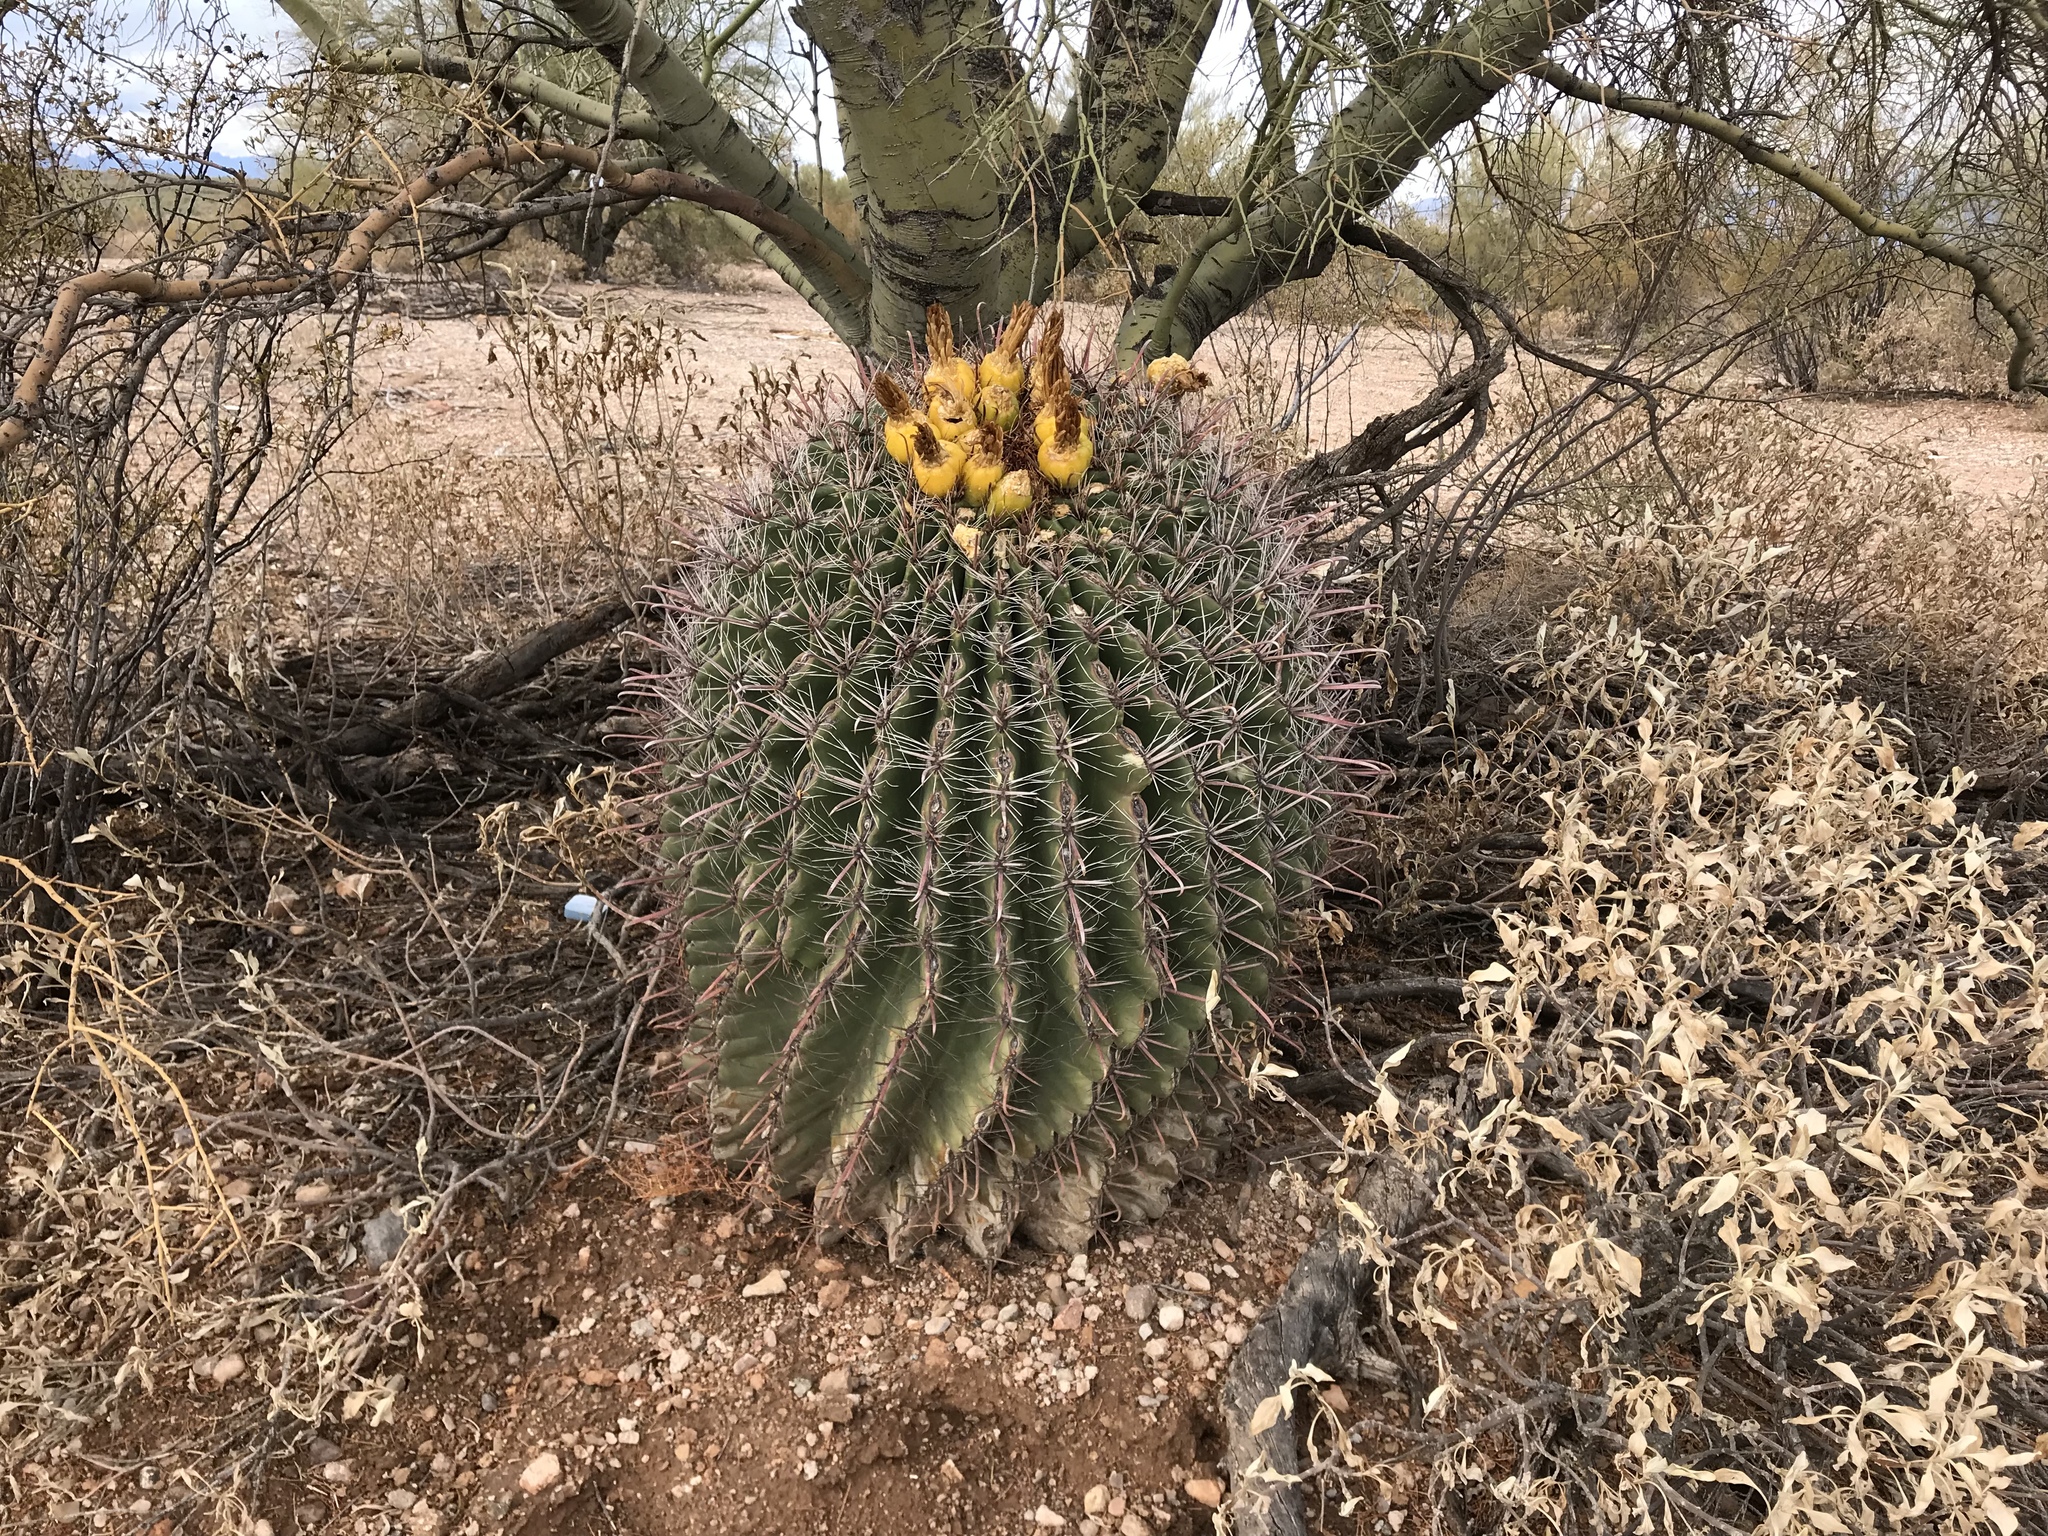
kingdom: Plantae
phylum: Tracheophyta
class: Magnoliopsida
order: Caryophyllales
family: Cactaceae
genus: Ferocactus
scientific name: Ferocactus wislizeni
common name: Candy barrel cactus
